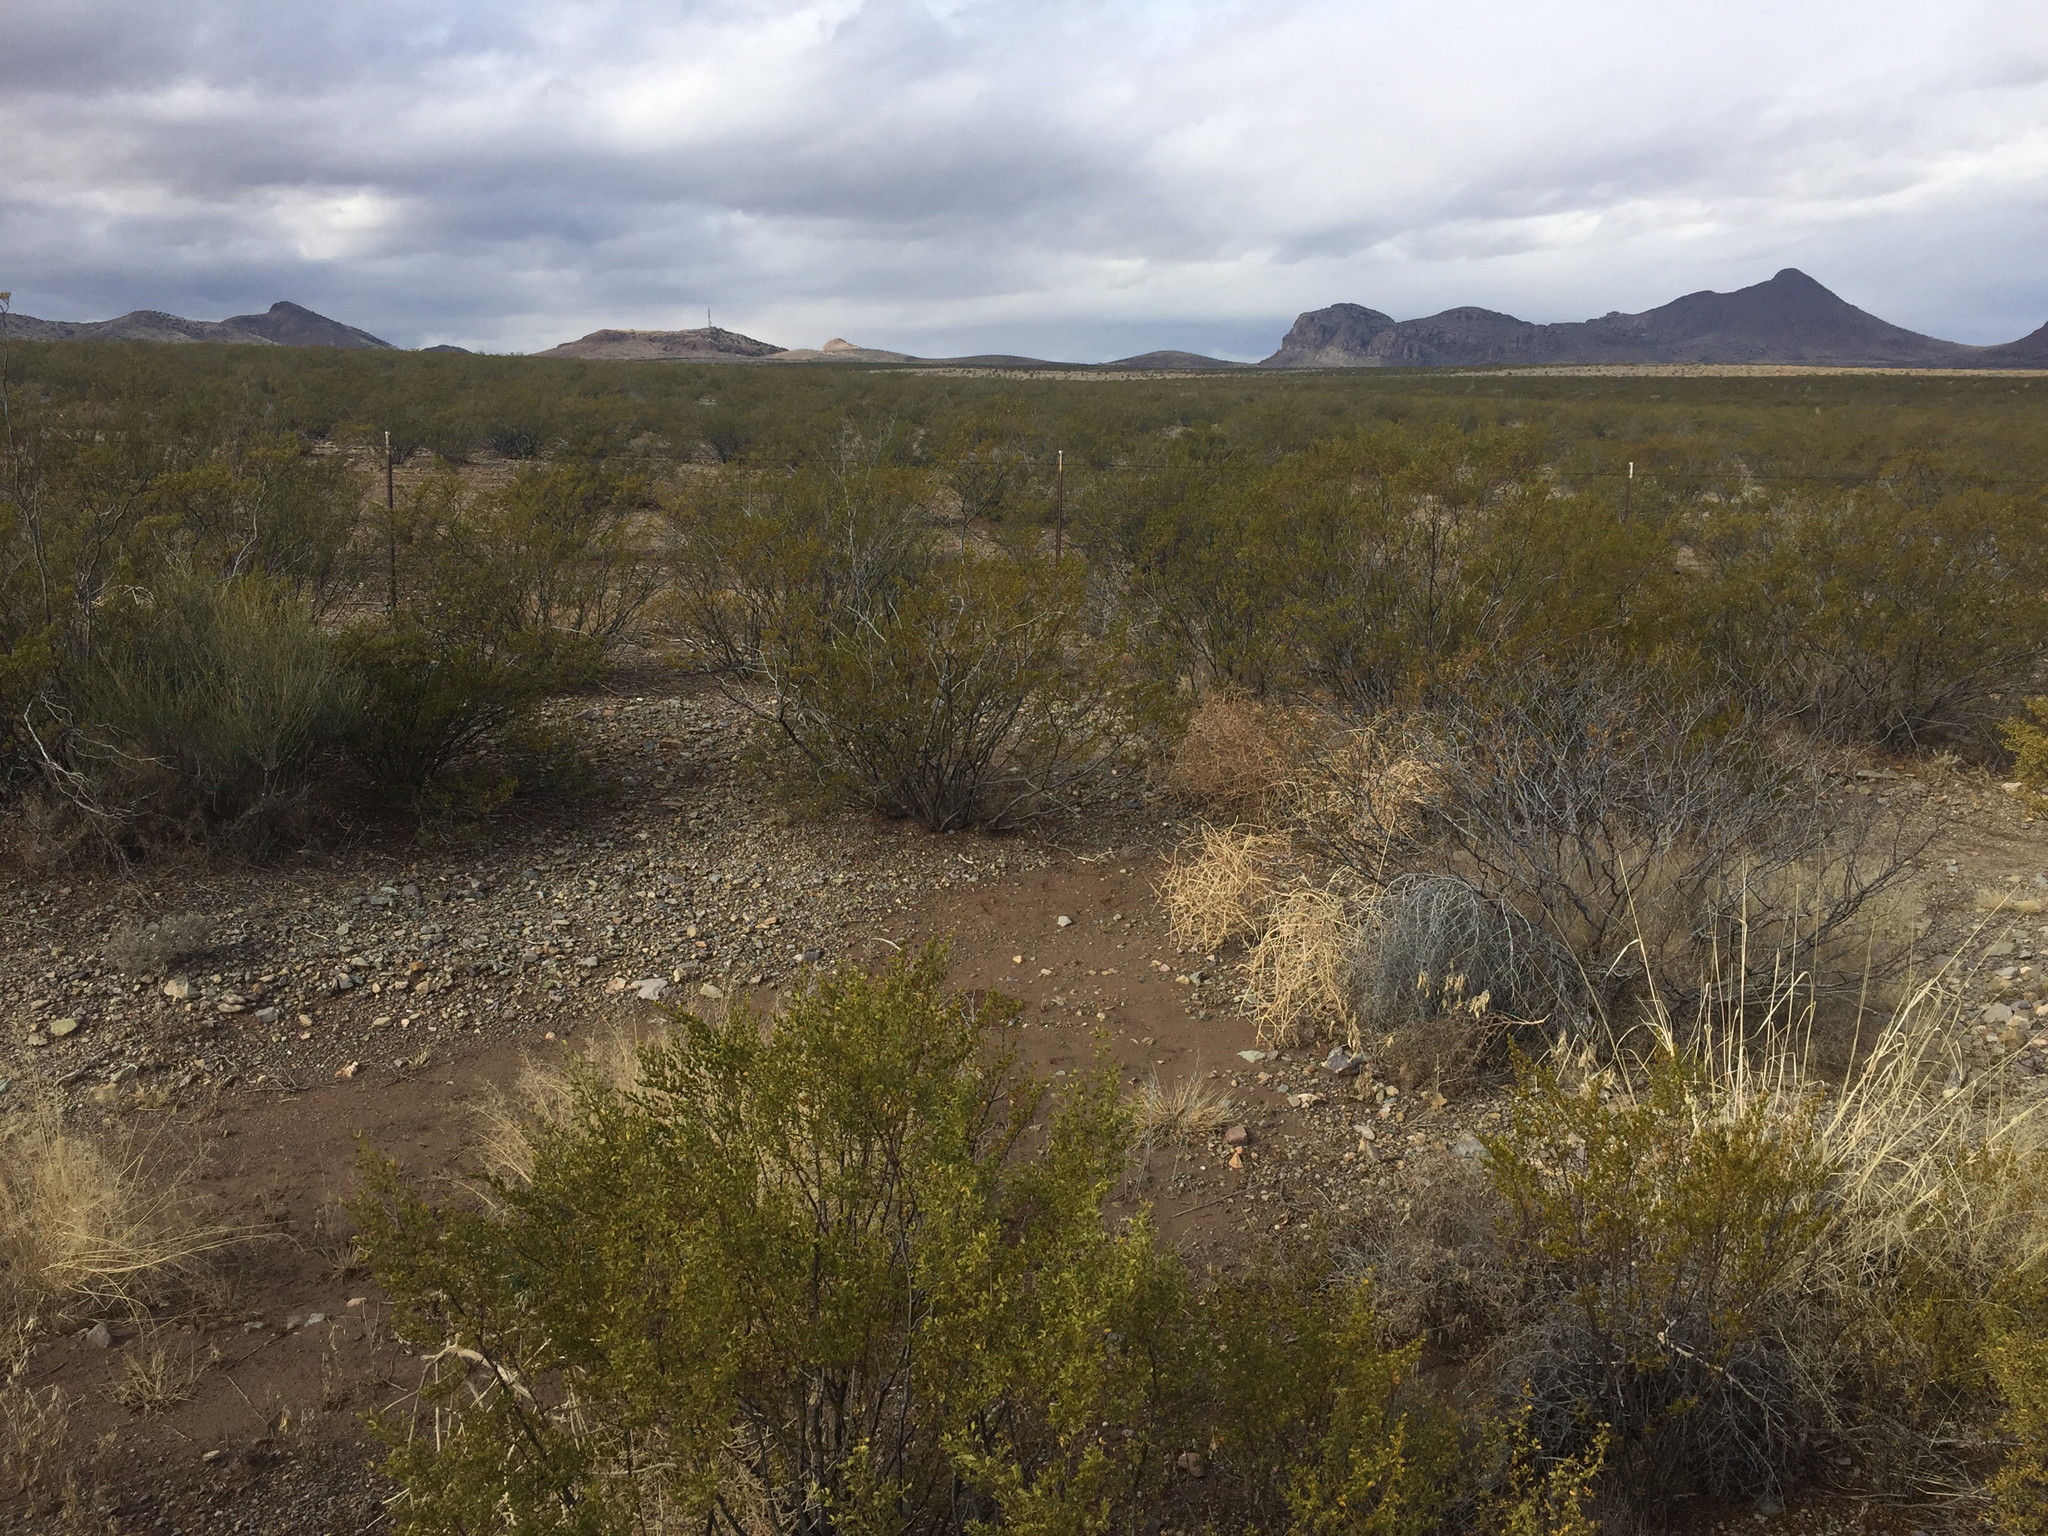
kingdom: Plantae
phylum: Tracheophyta
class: Magnoliopsida
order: Zygophyllales
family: Zygophyllaceae
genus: Larrea
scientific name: Larrea tridentata
